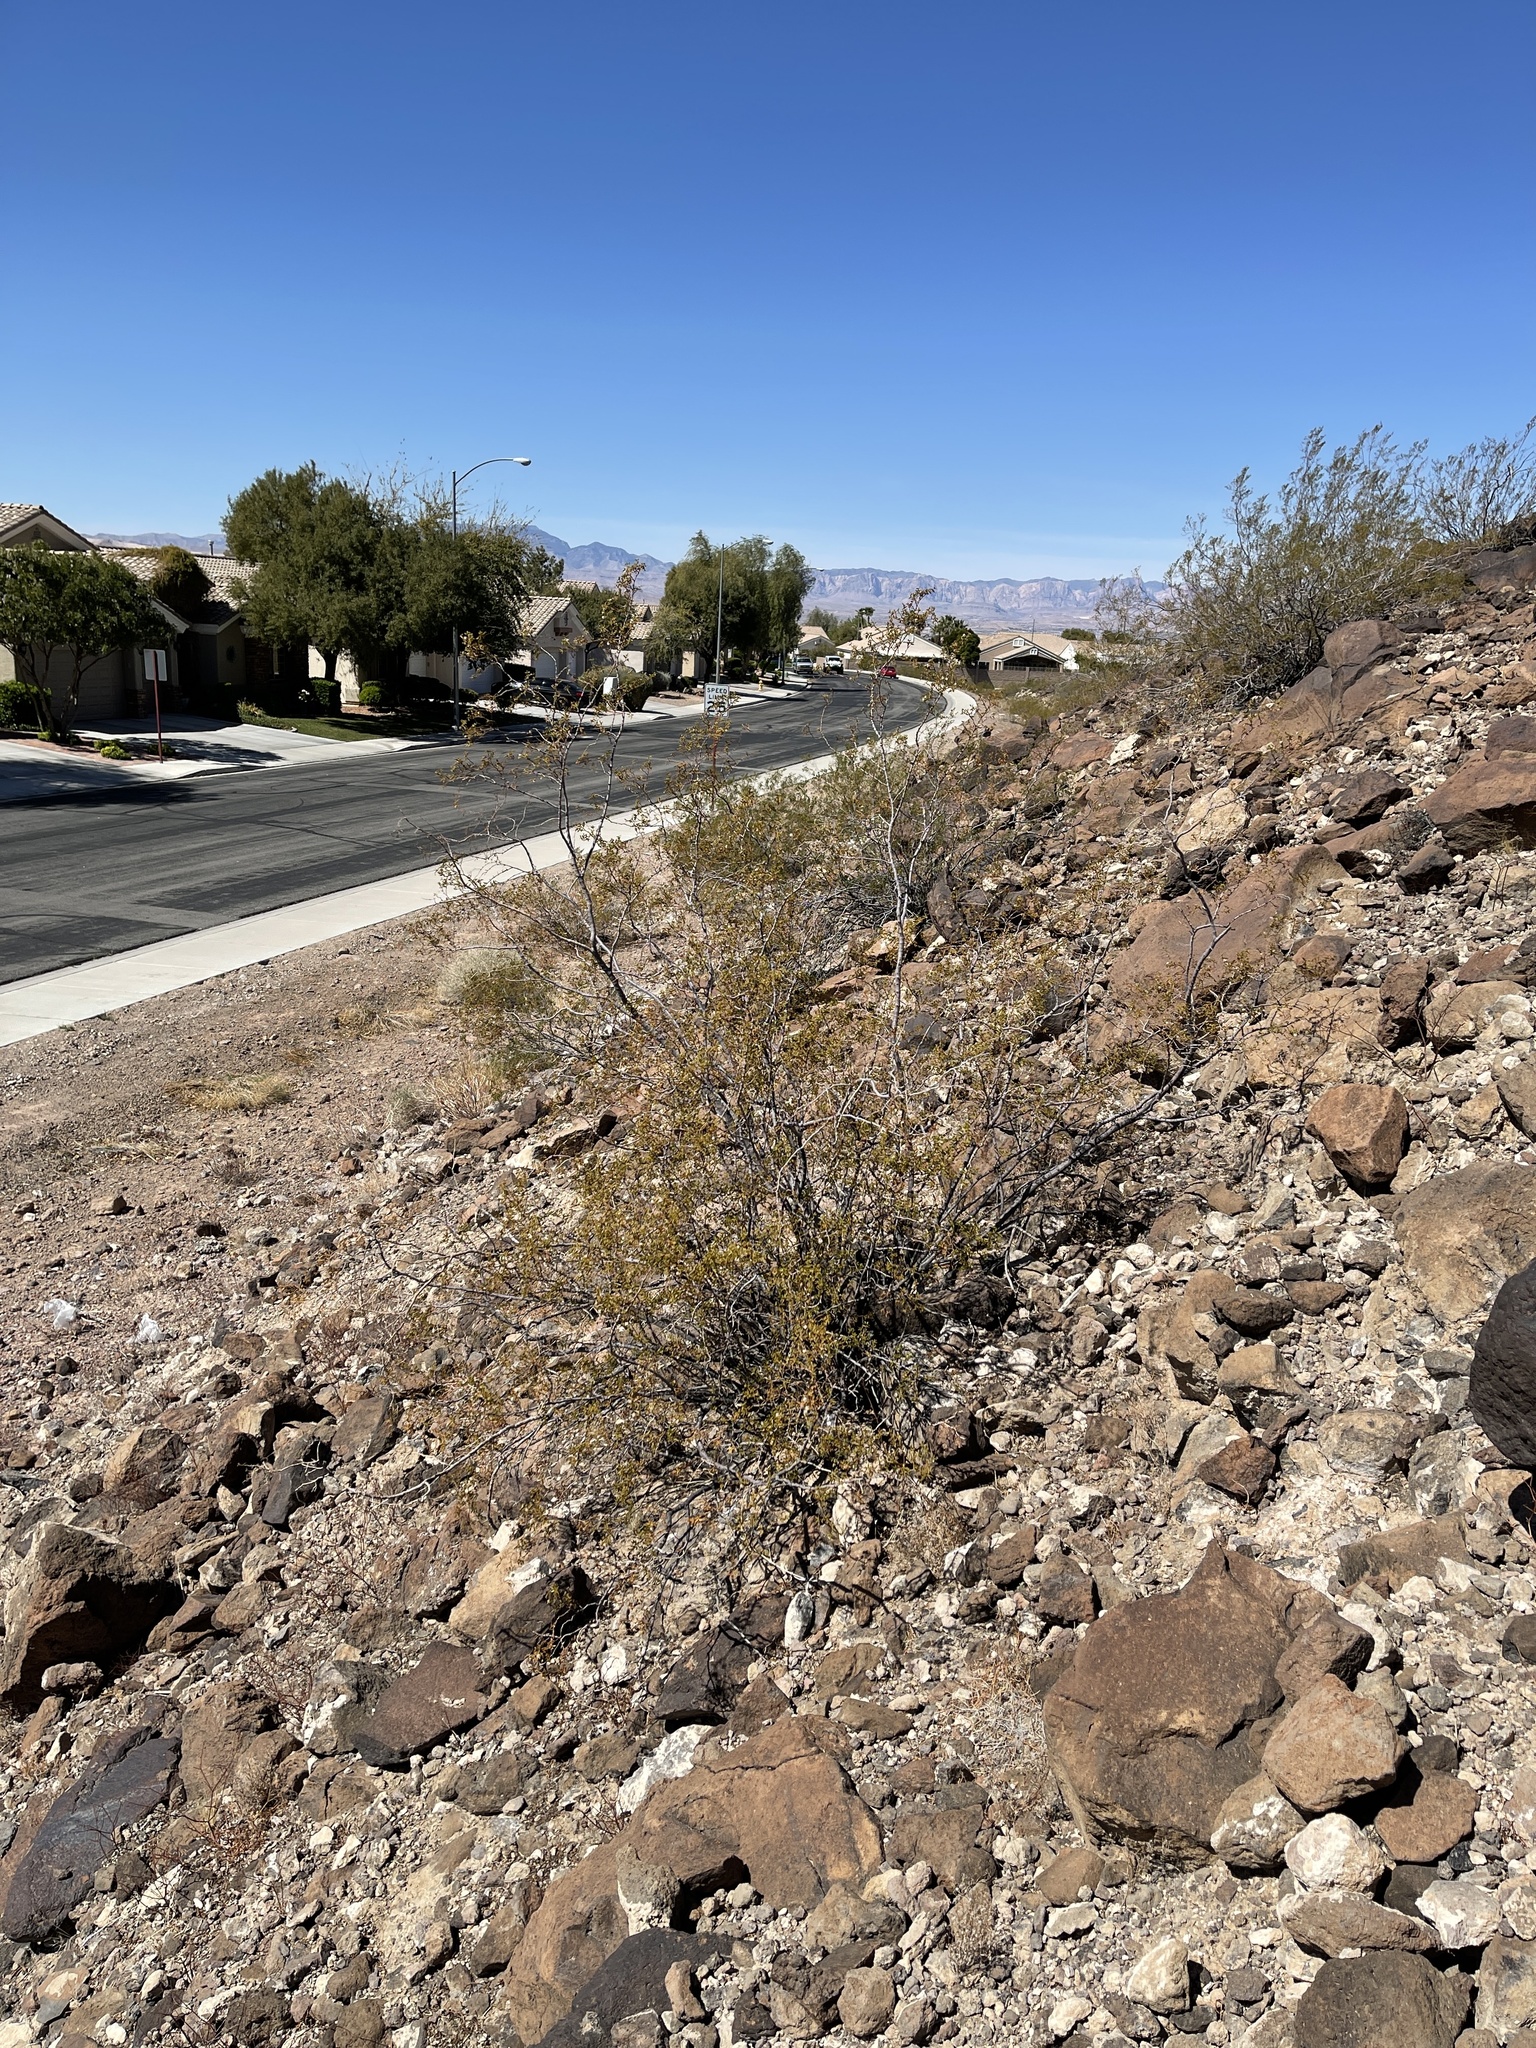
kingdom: Plantae
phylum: Tracheophyta
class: Magnoliopsida
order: Zygophyllales
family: Zygophyllaceae
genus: Larrea
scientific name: Larrea tridentata
